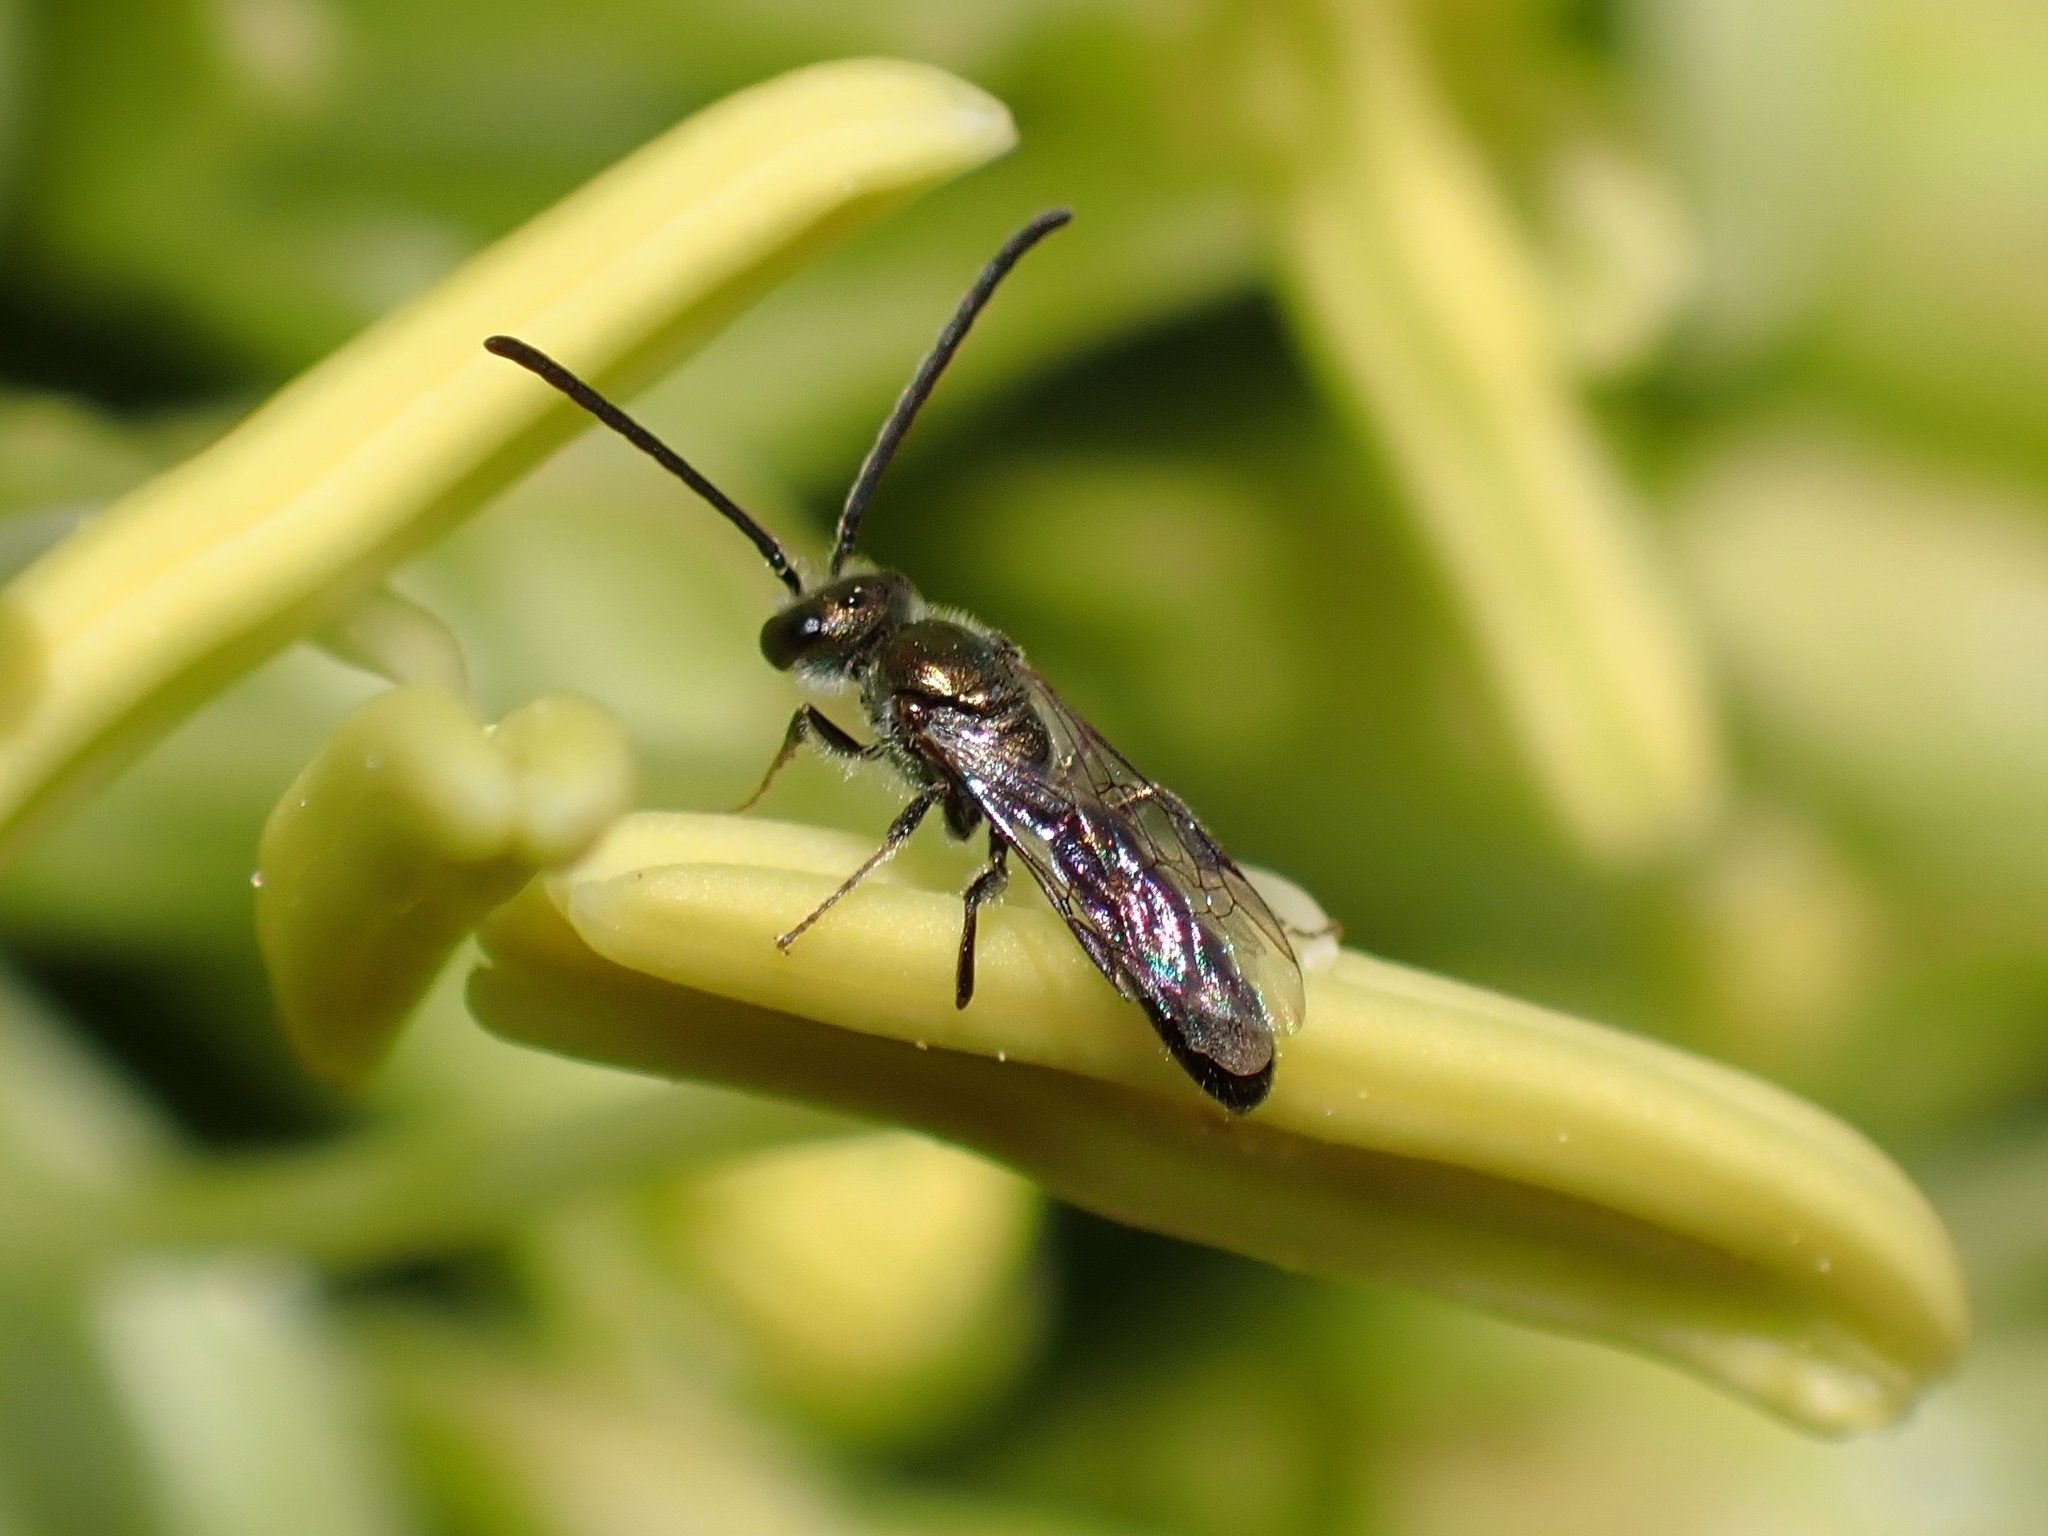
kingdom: Animalia
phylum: Arthropoda
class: Insecta
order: Hymenoptera
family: Halictidae
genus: Lasioglossum
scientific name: Lasioglossum loetum
